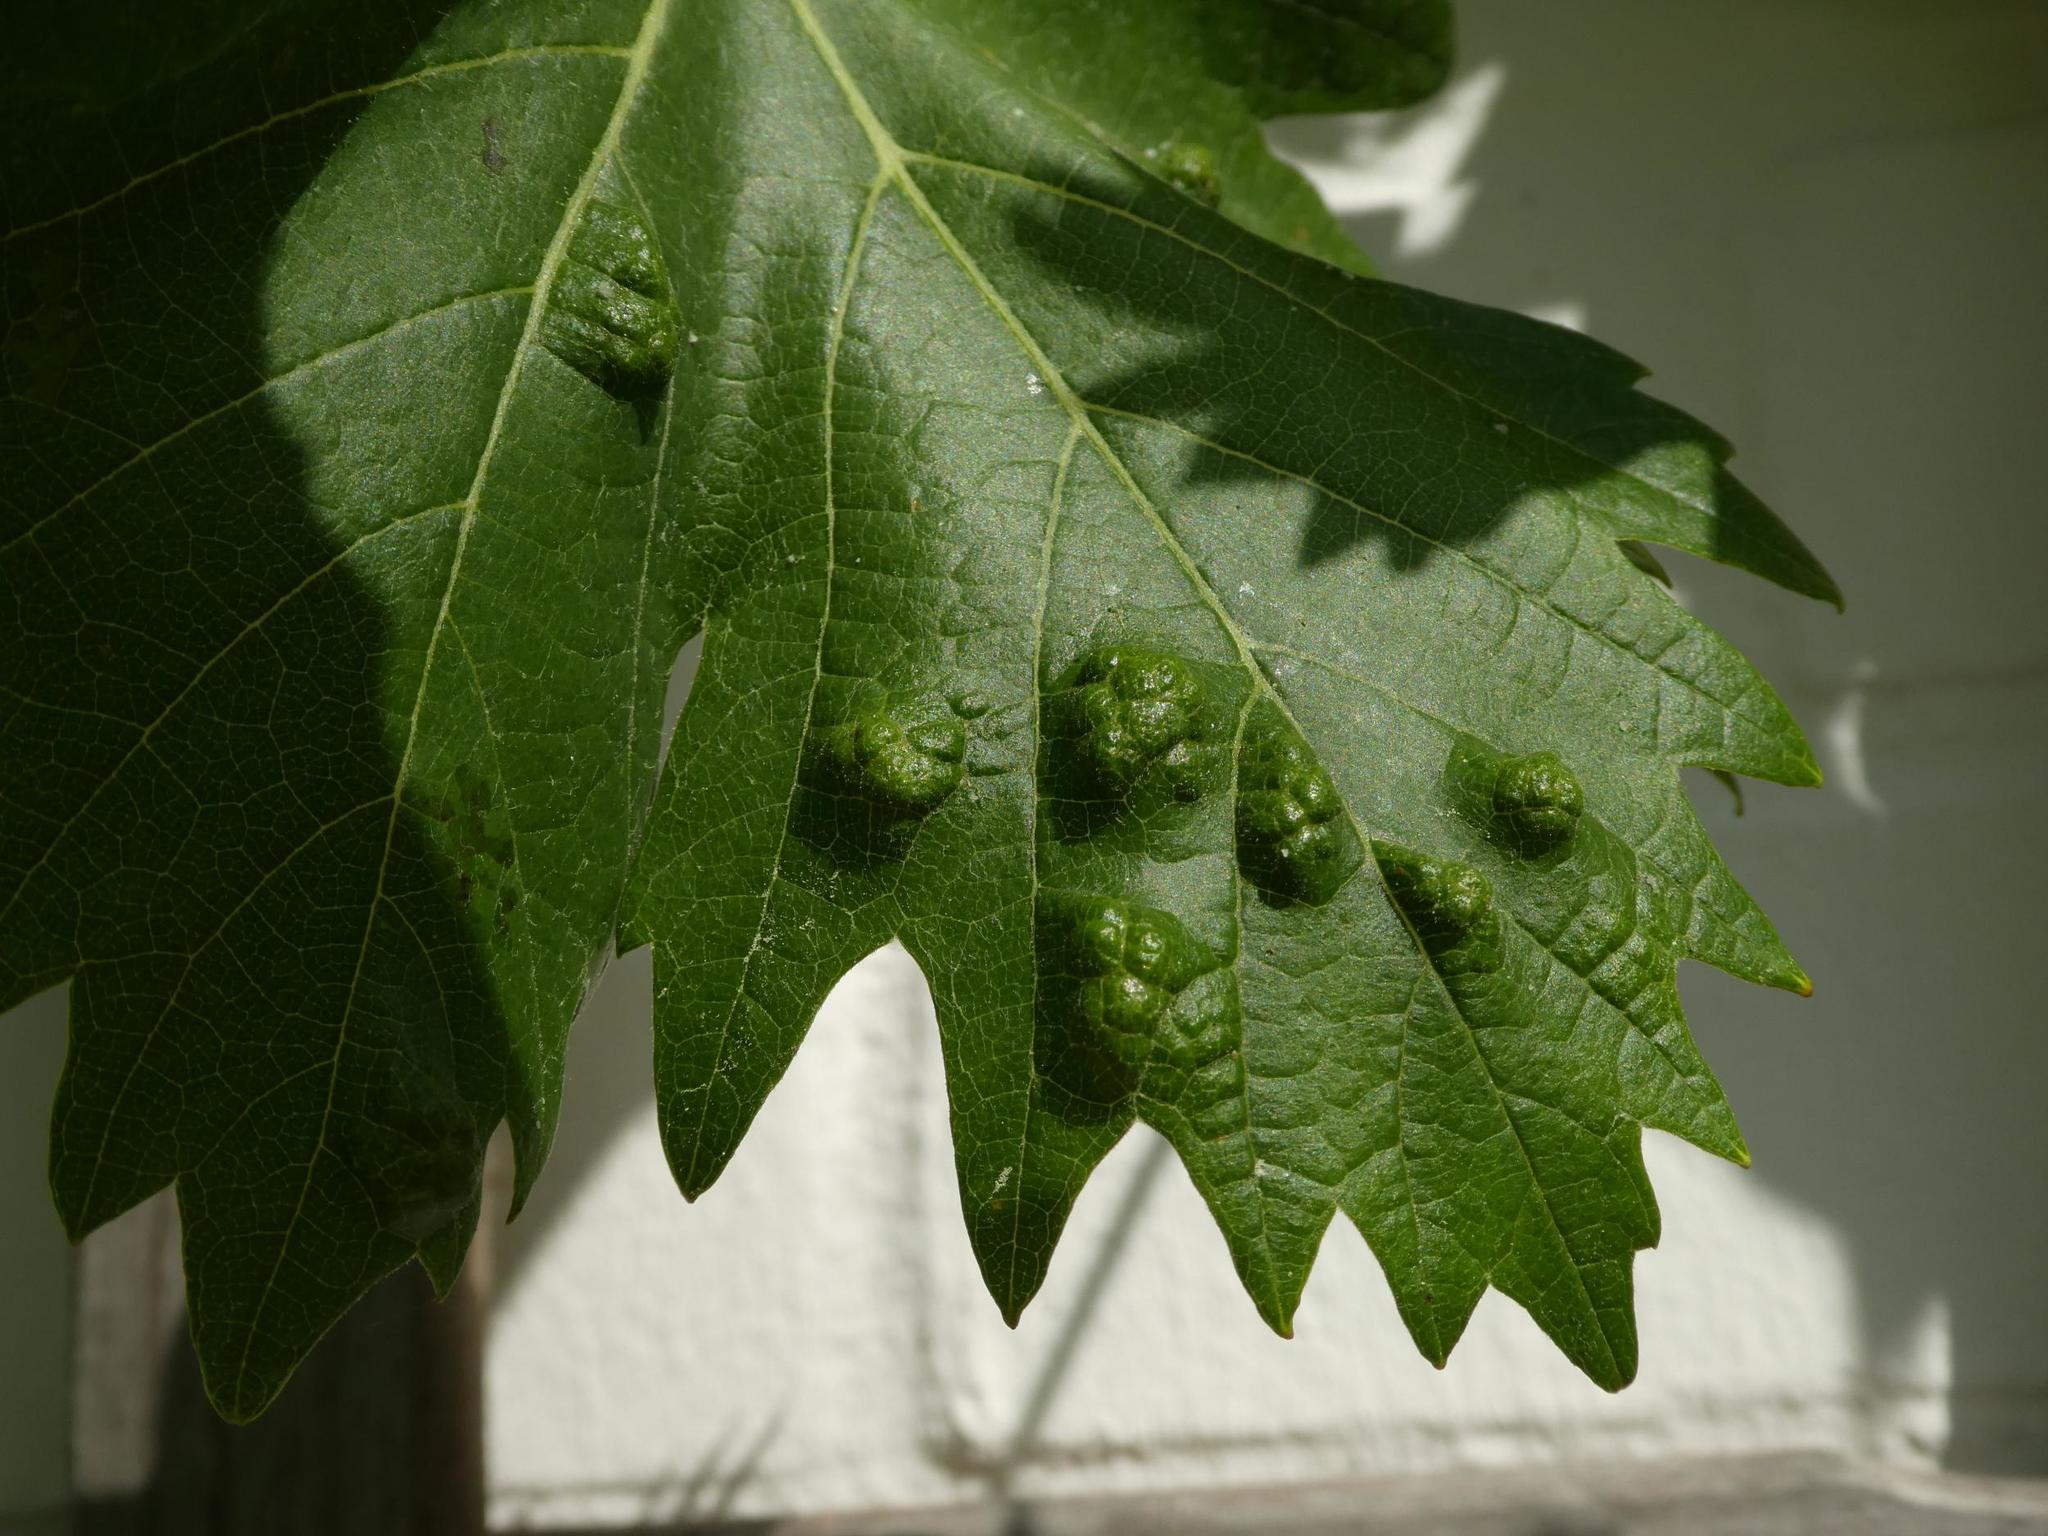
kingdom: Animalia
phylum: Arthropoda
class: Arachnida
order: Trombidiformes
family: Eriophyidae
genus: Colomerus
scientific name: Colomerus vitis
